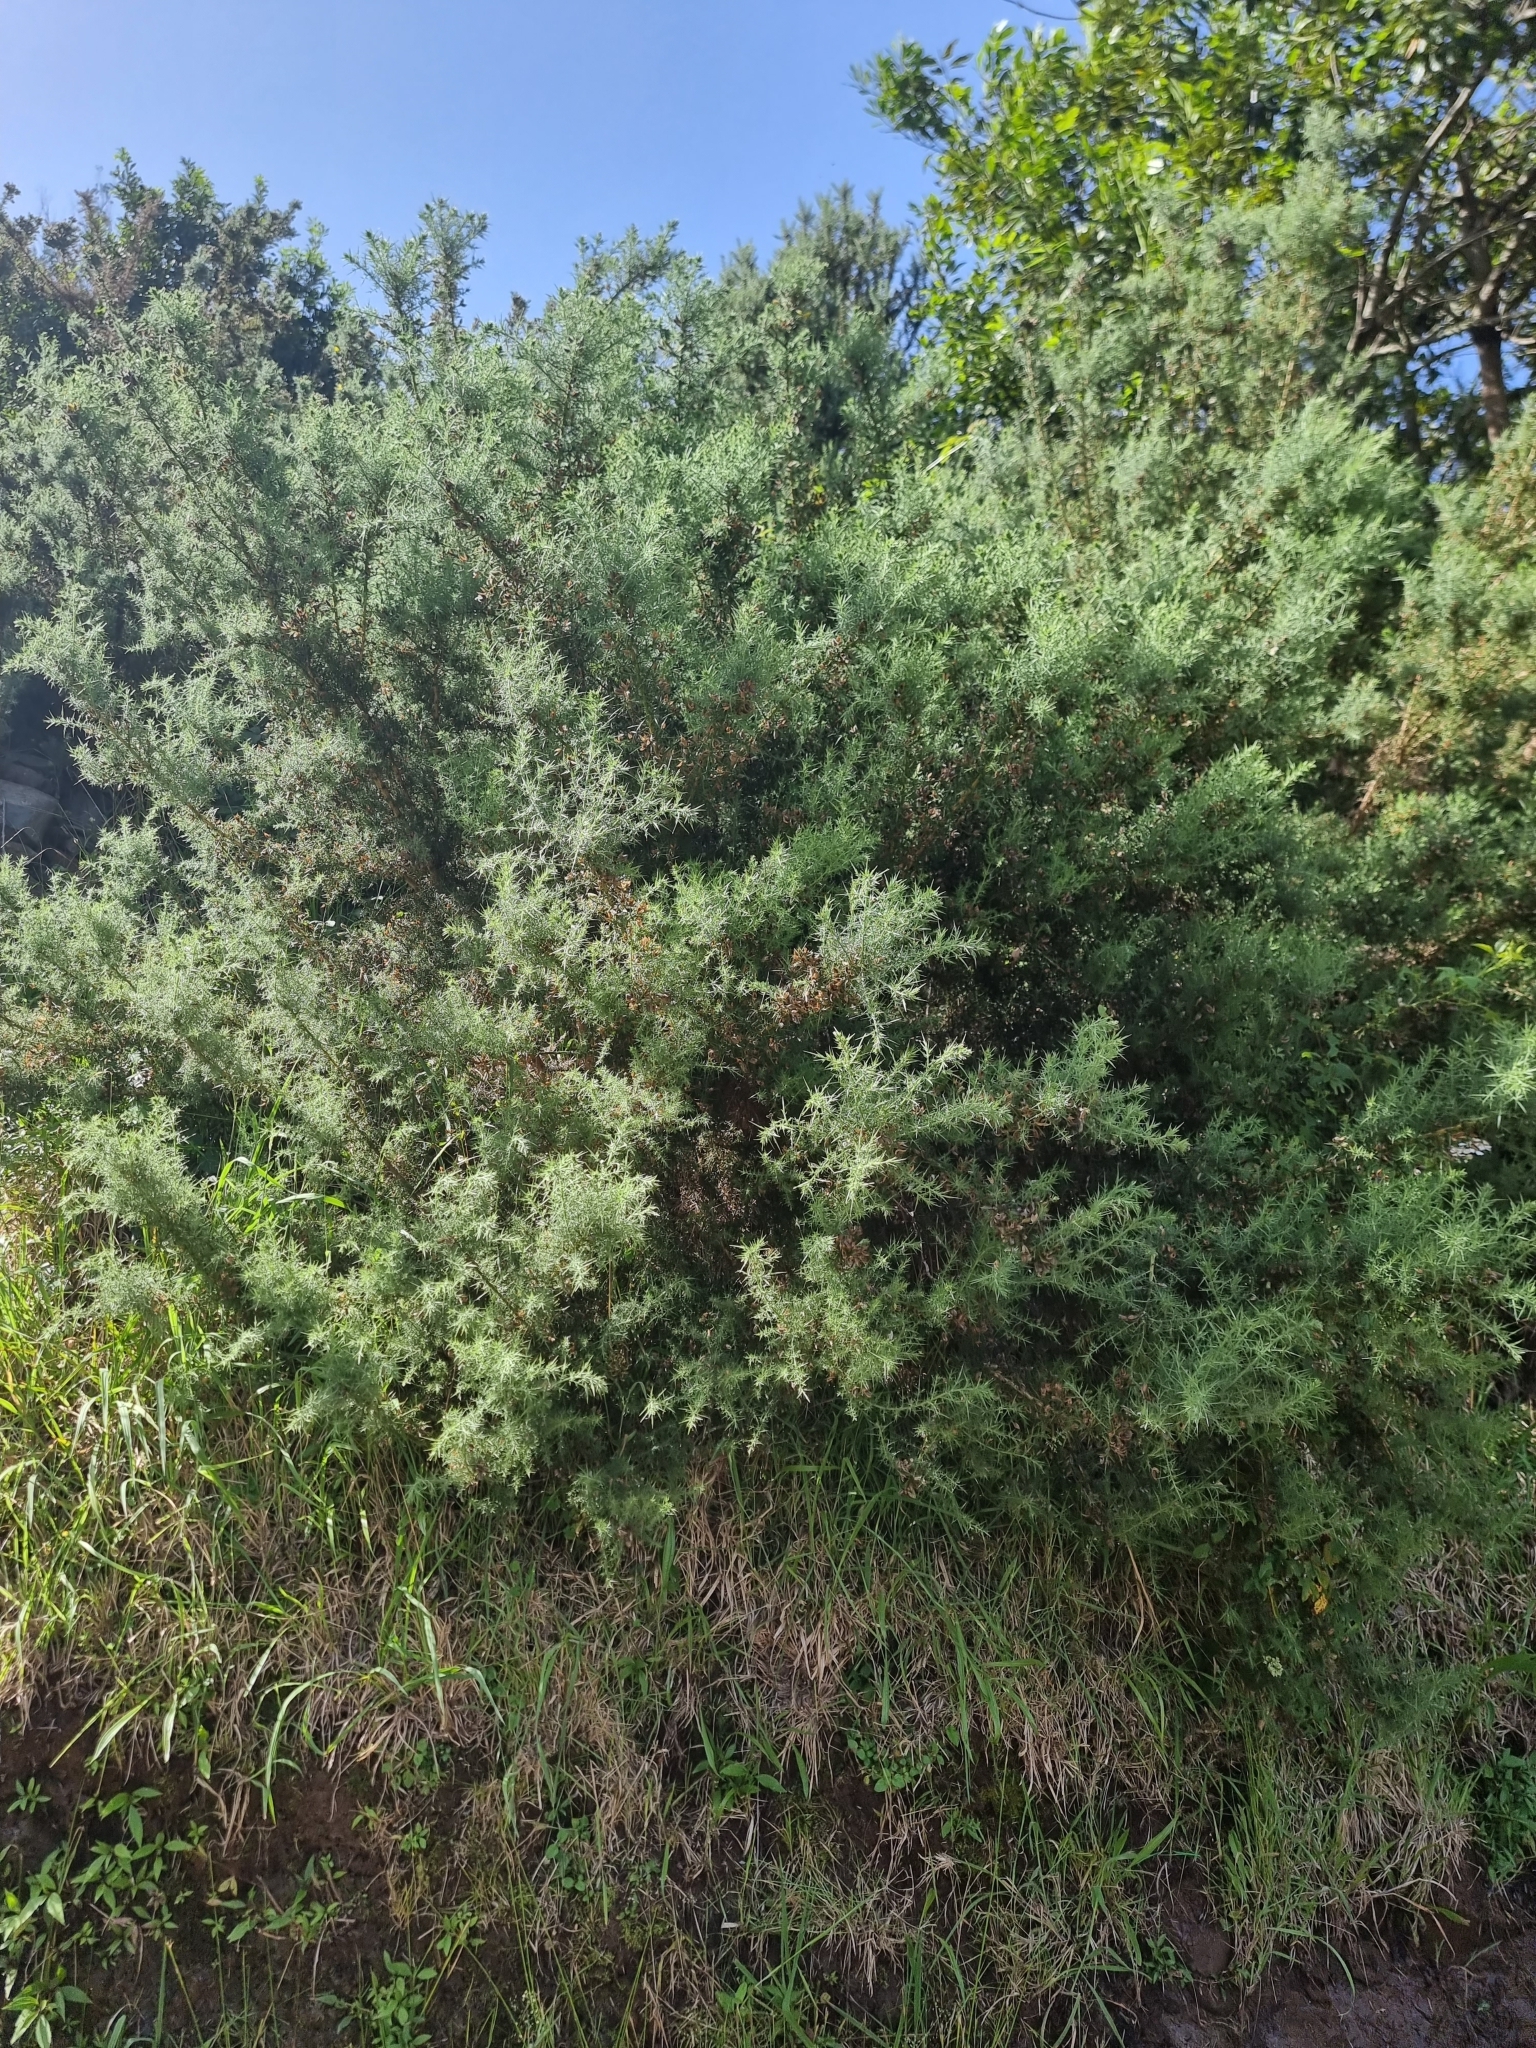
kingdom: Plantae
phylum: Tracheophyta
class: Magnoliopsida
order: Fabales
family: Fabaceae
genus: Ulex
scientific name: Ulex europaeus
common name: Common gorse
